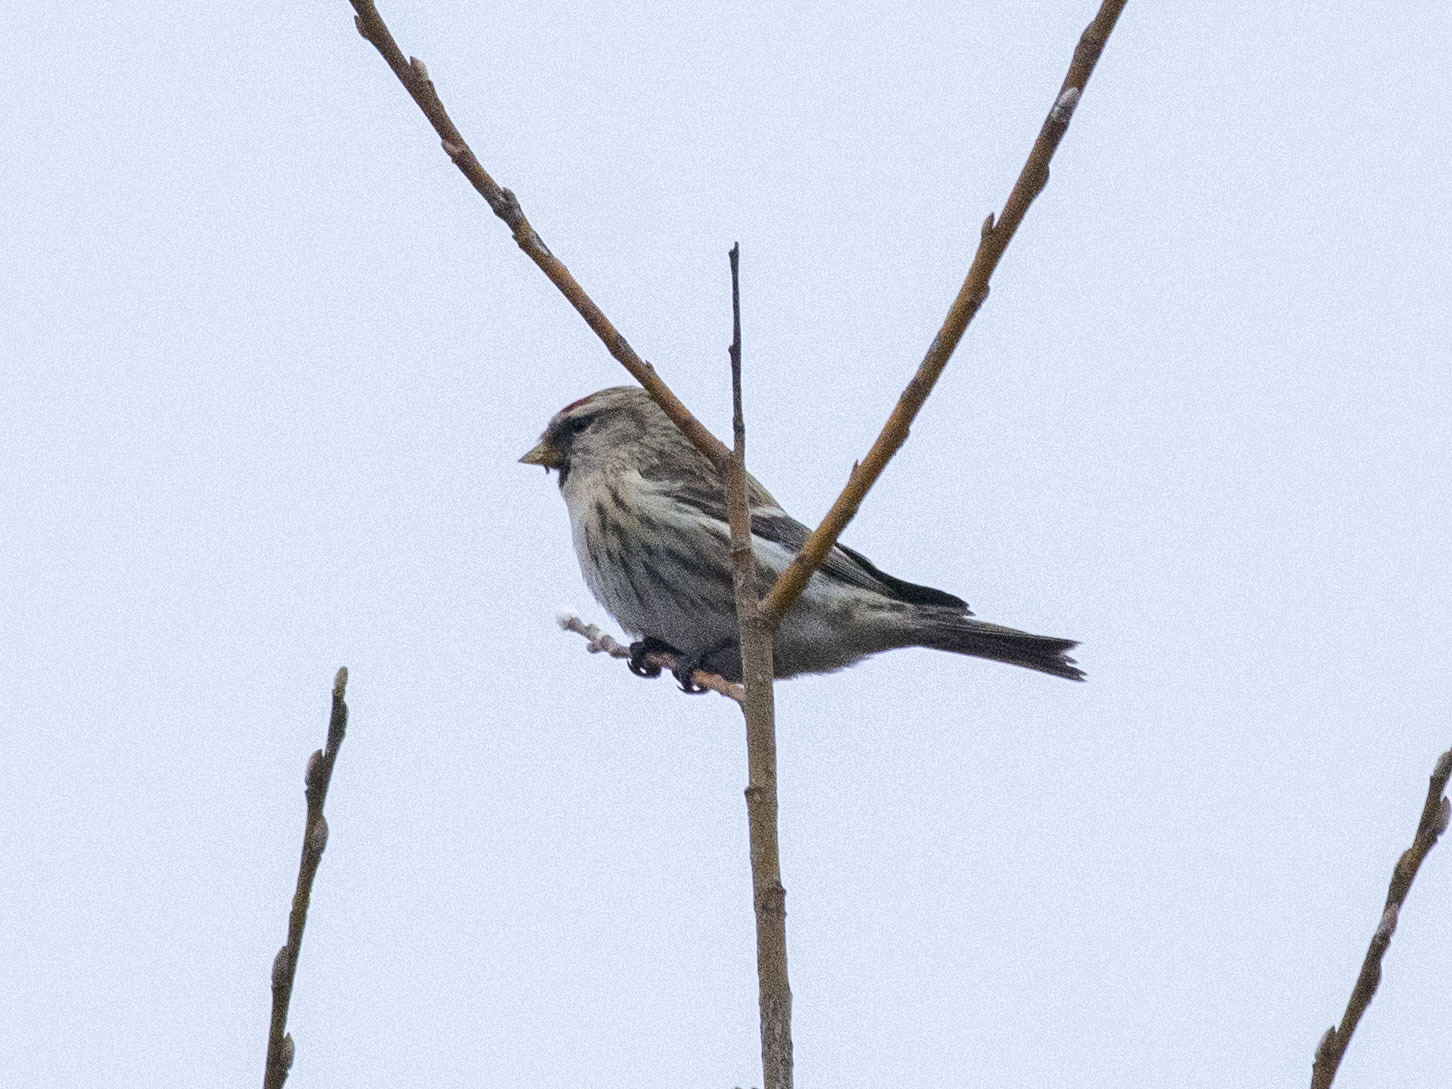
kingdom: Animalia
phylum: Chordata
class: Aves
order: Passeriformes
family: Fringillidae
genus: Acanthis
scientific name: Acanthis flammea
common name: Common redpoll
